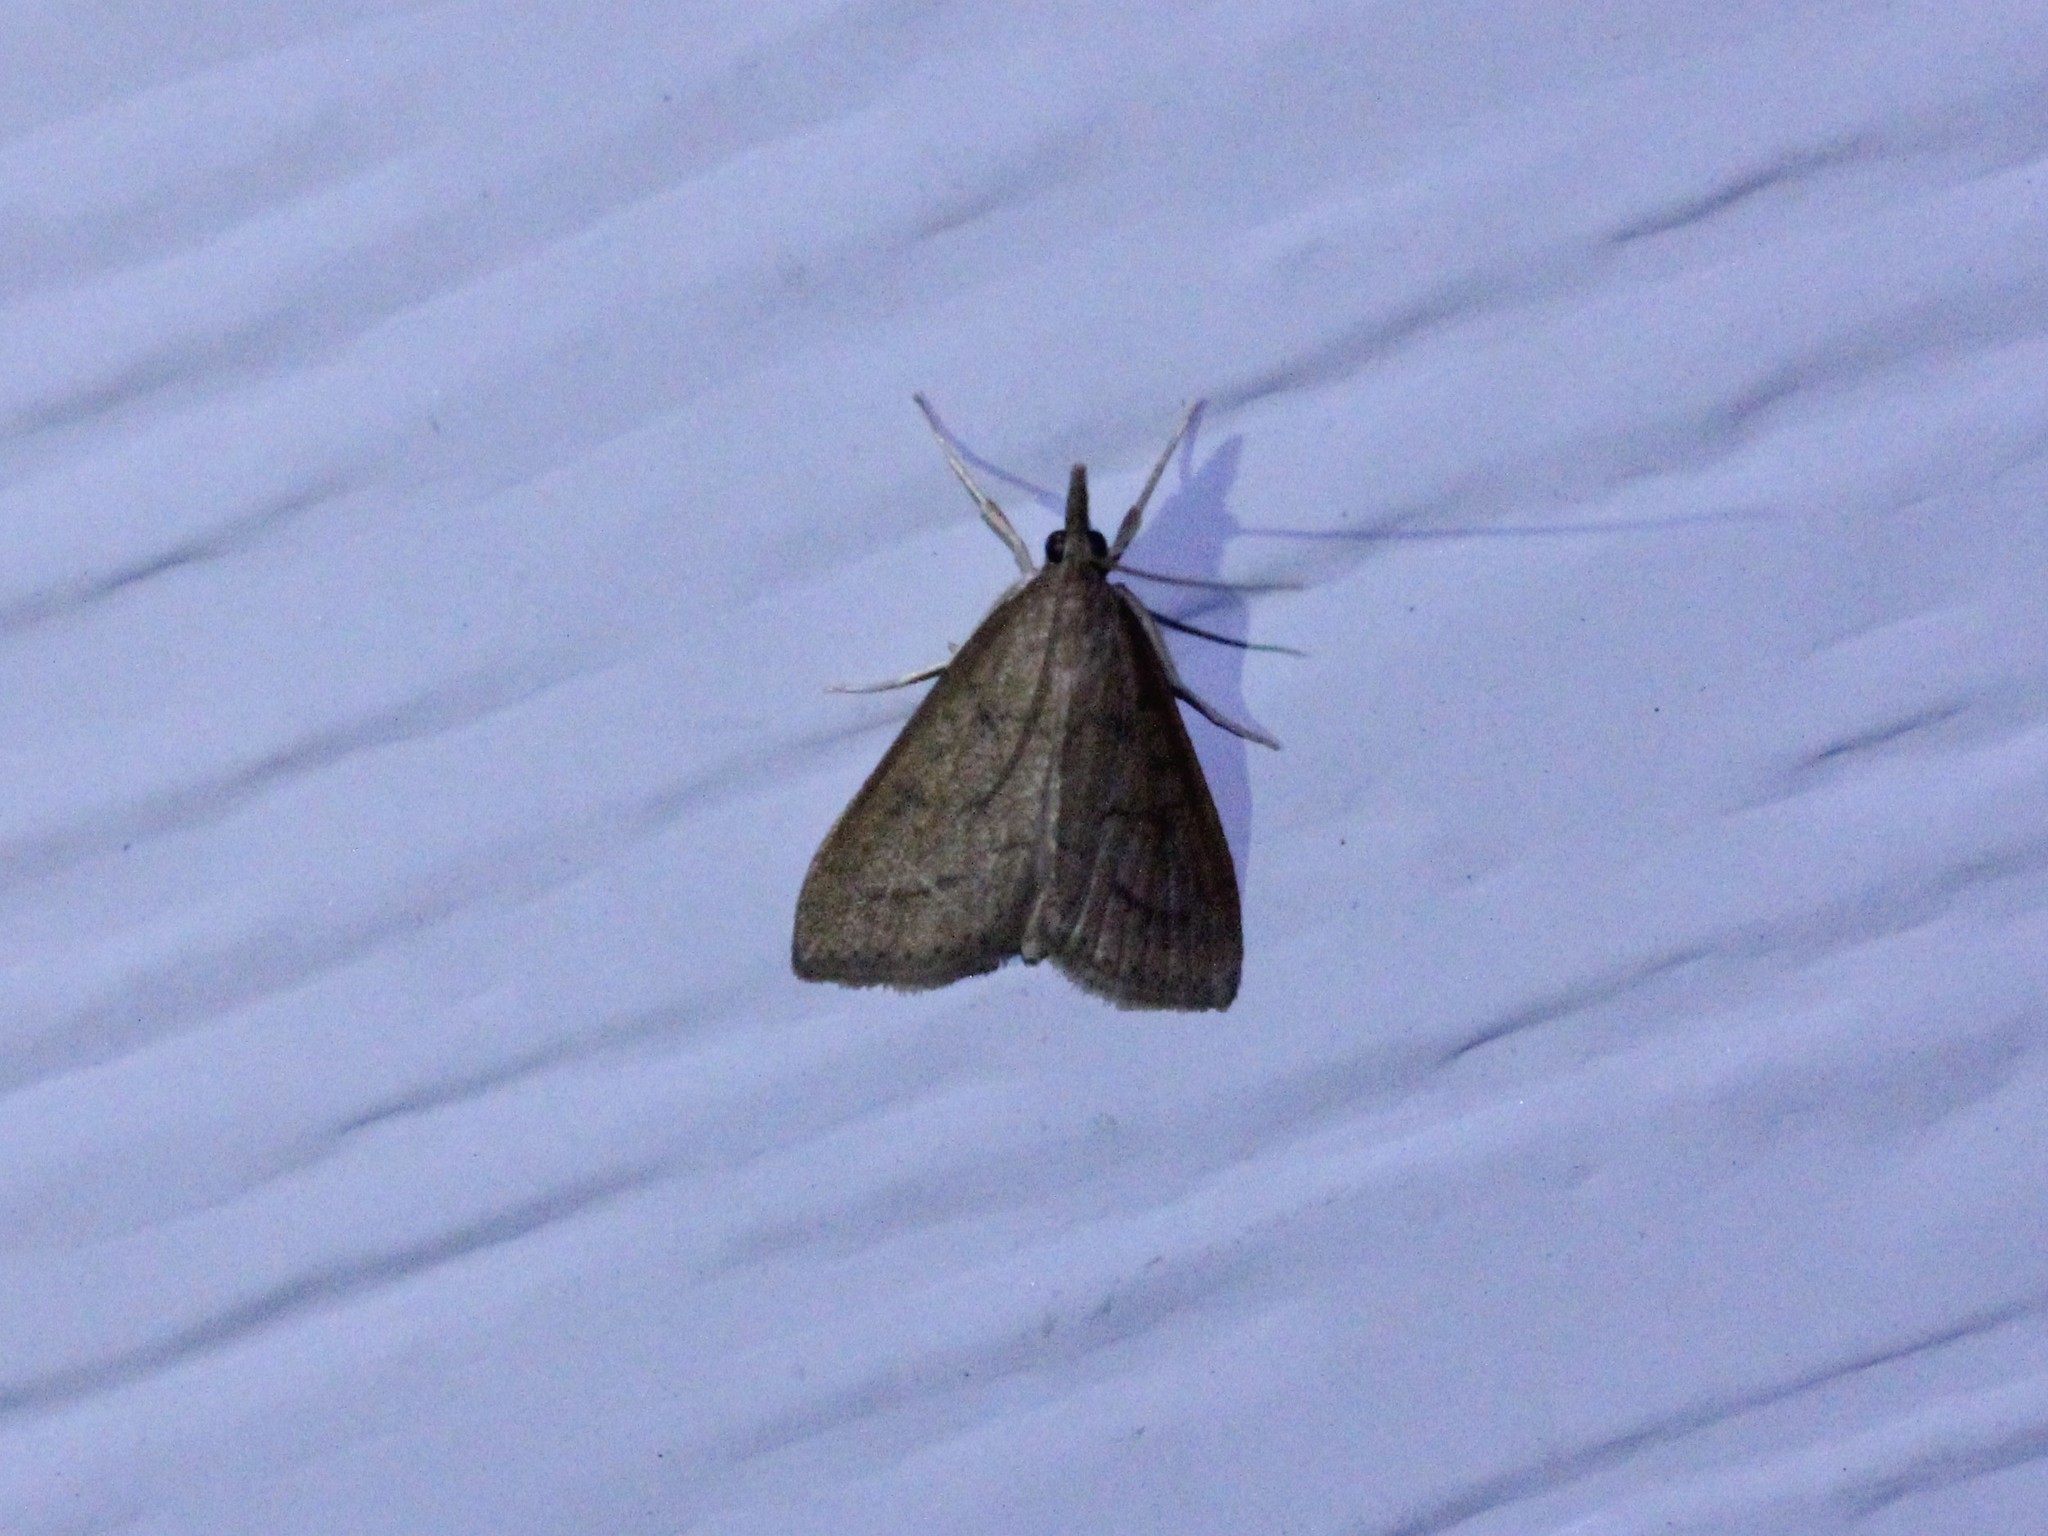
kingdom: Animalia
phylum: Arthropoda
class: Insecta
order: Lepidoptera
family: Crambidae
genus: Udea
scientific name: Udea rubigalis
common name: Celery leaftier moth
